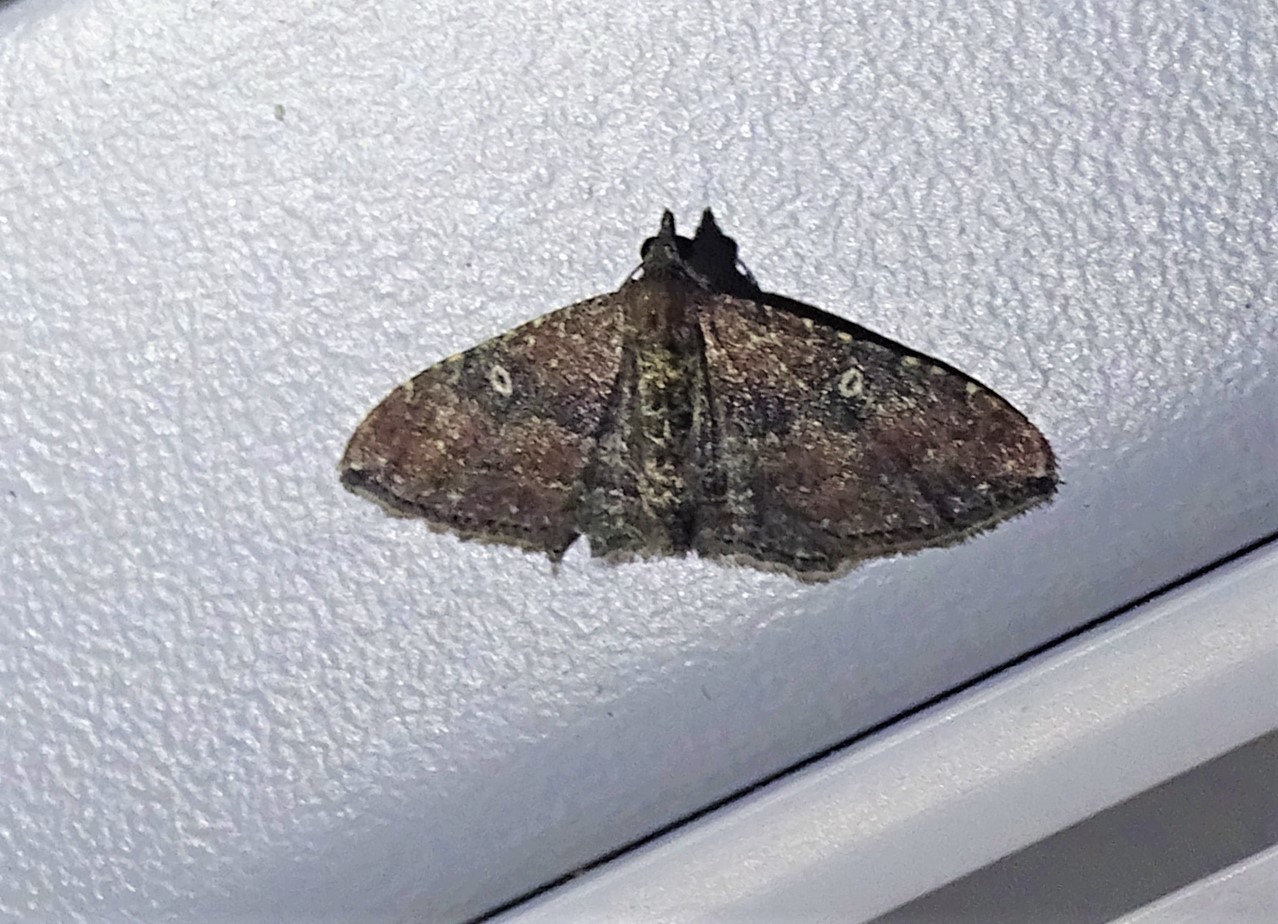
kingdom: Animalia
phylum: Arthropoda
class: Insecta
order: Lepidoptera
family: Geometridae
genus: Orthonama
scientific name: Orthonama obstipata
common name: The gem
